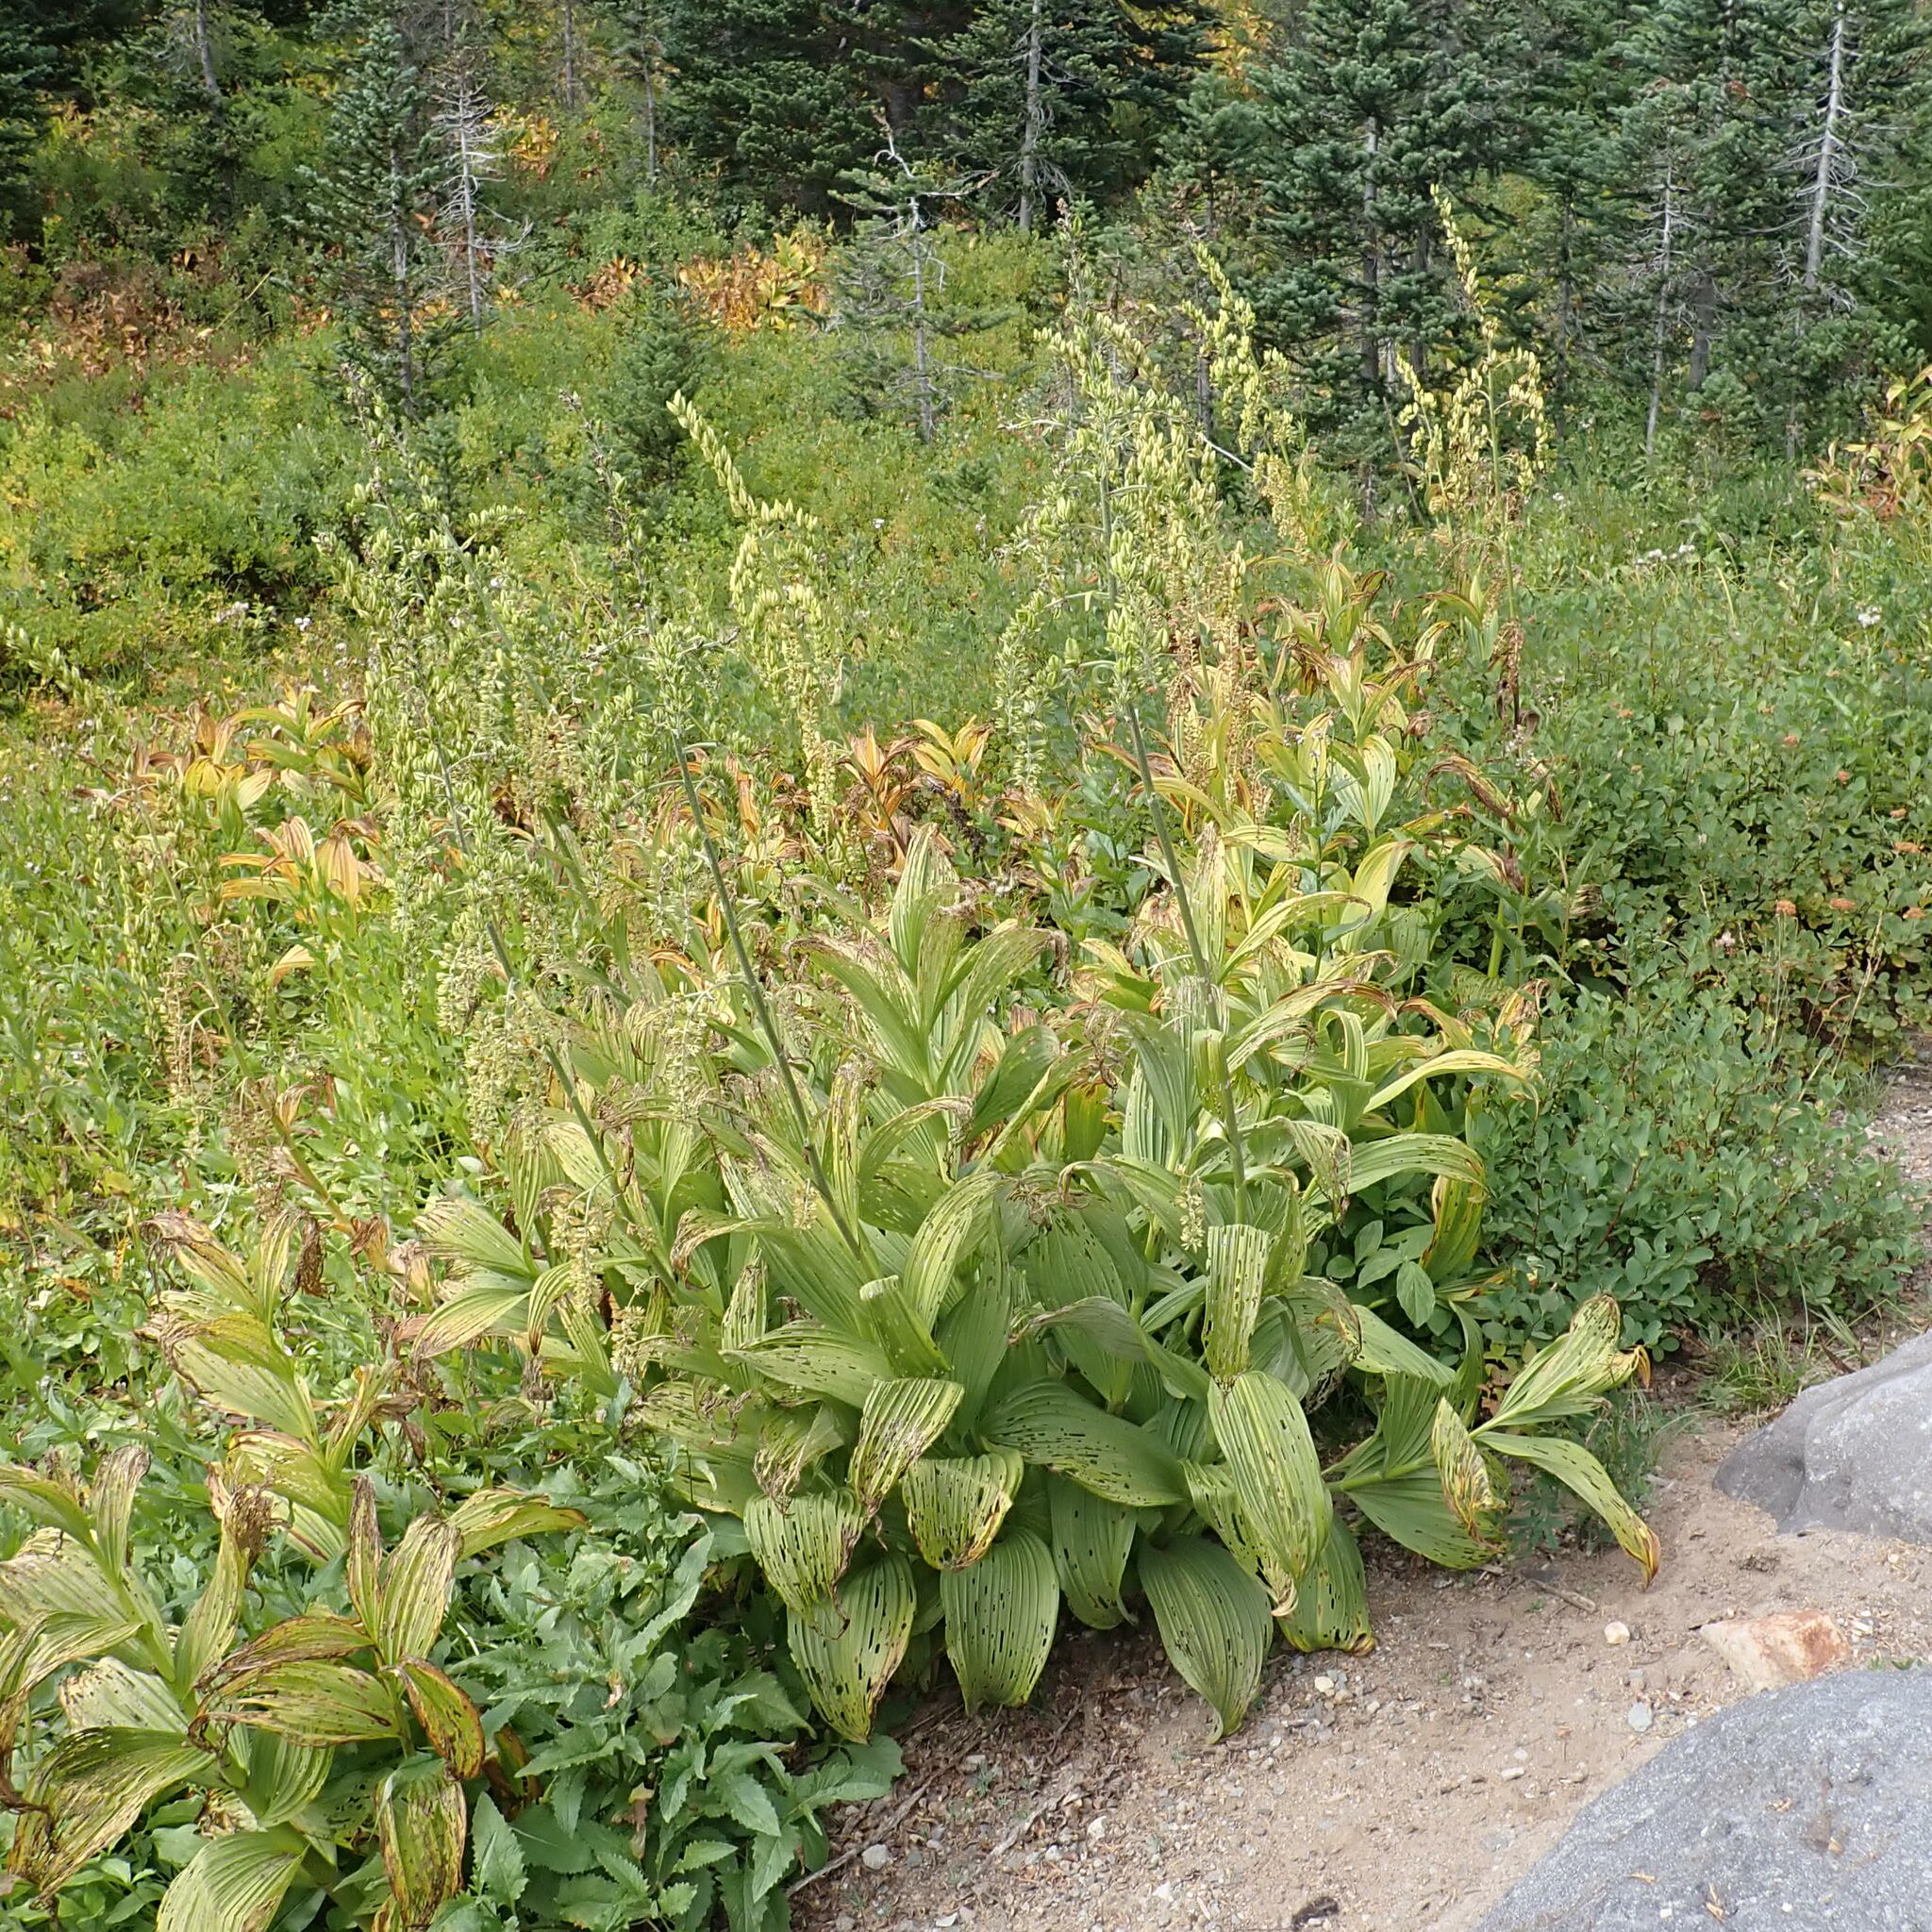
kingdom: Plantae
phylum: Tracheophyta
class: Liliopsida
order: Liliales
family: Melanthiaceae
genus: Veratrum
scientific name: Veratrum viride
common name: American false hellebore
